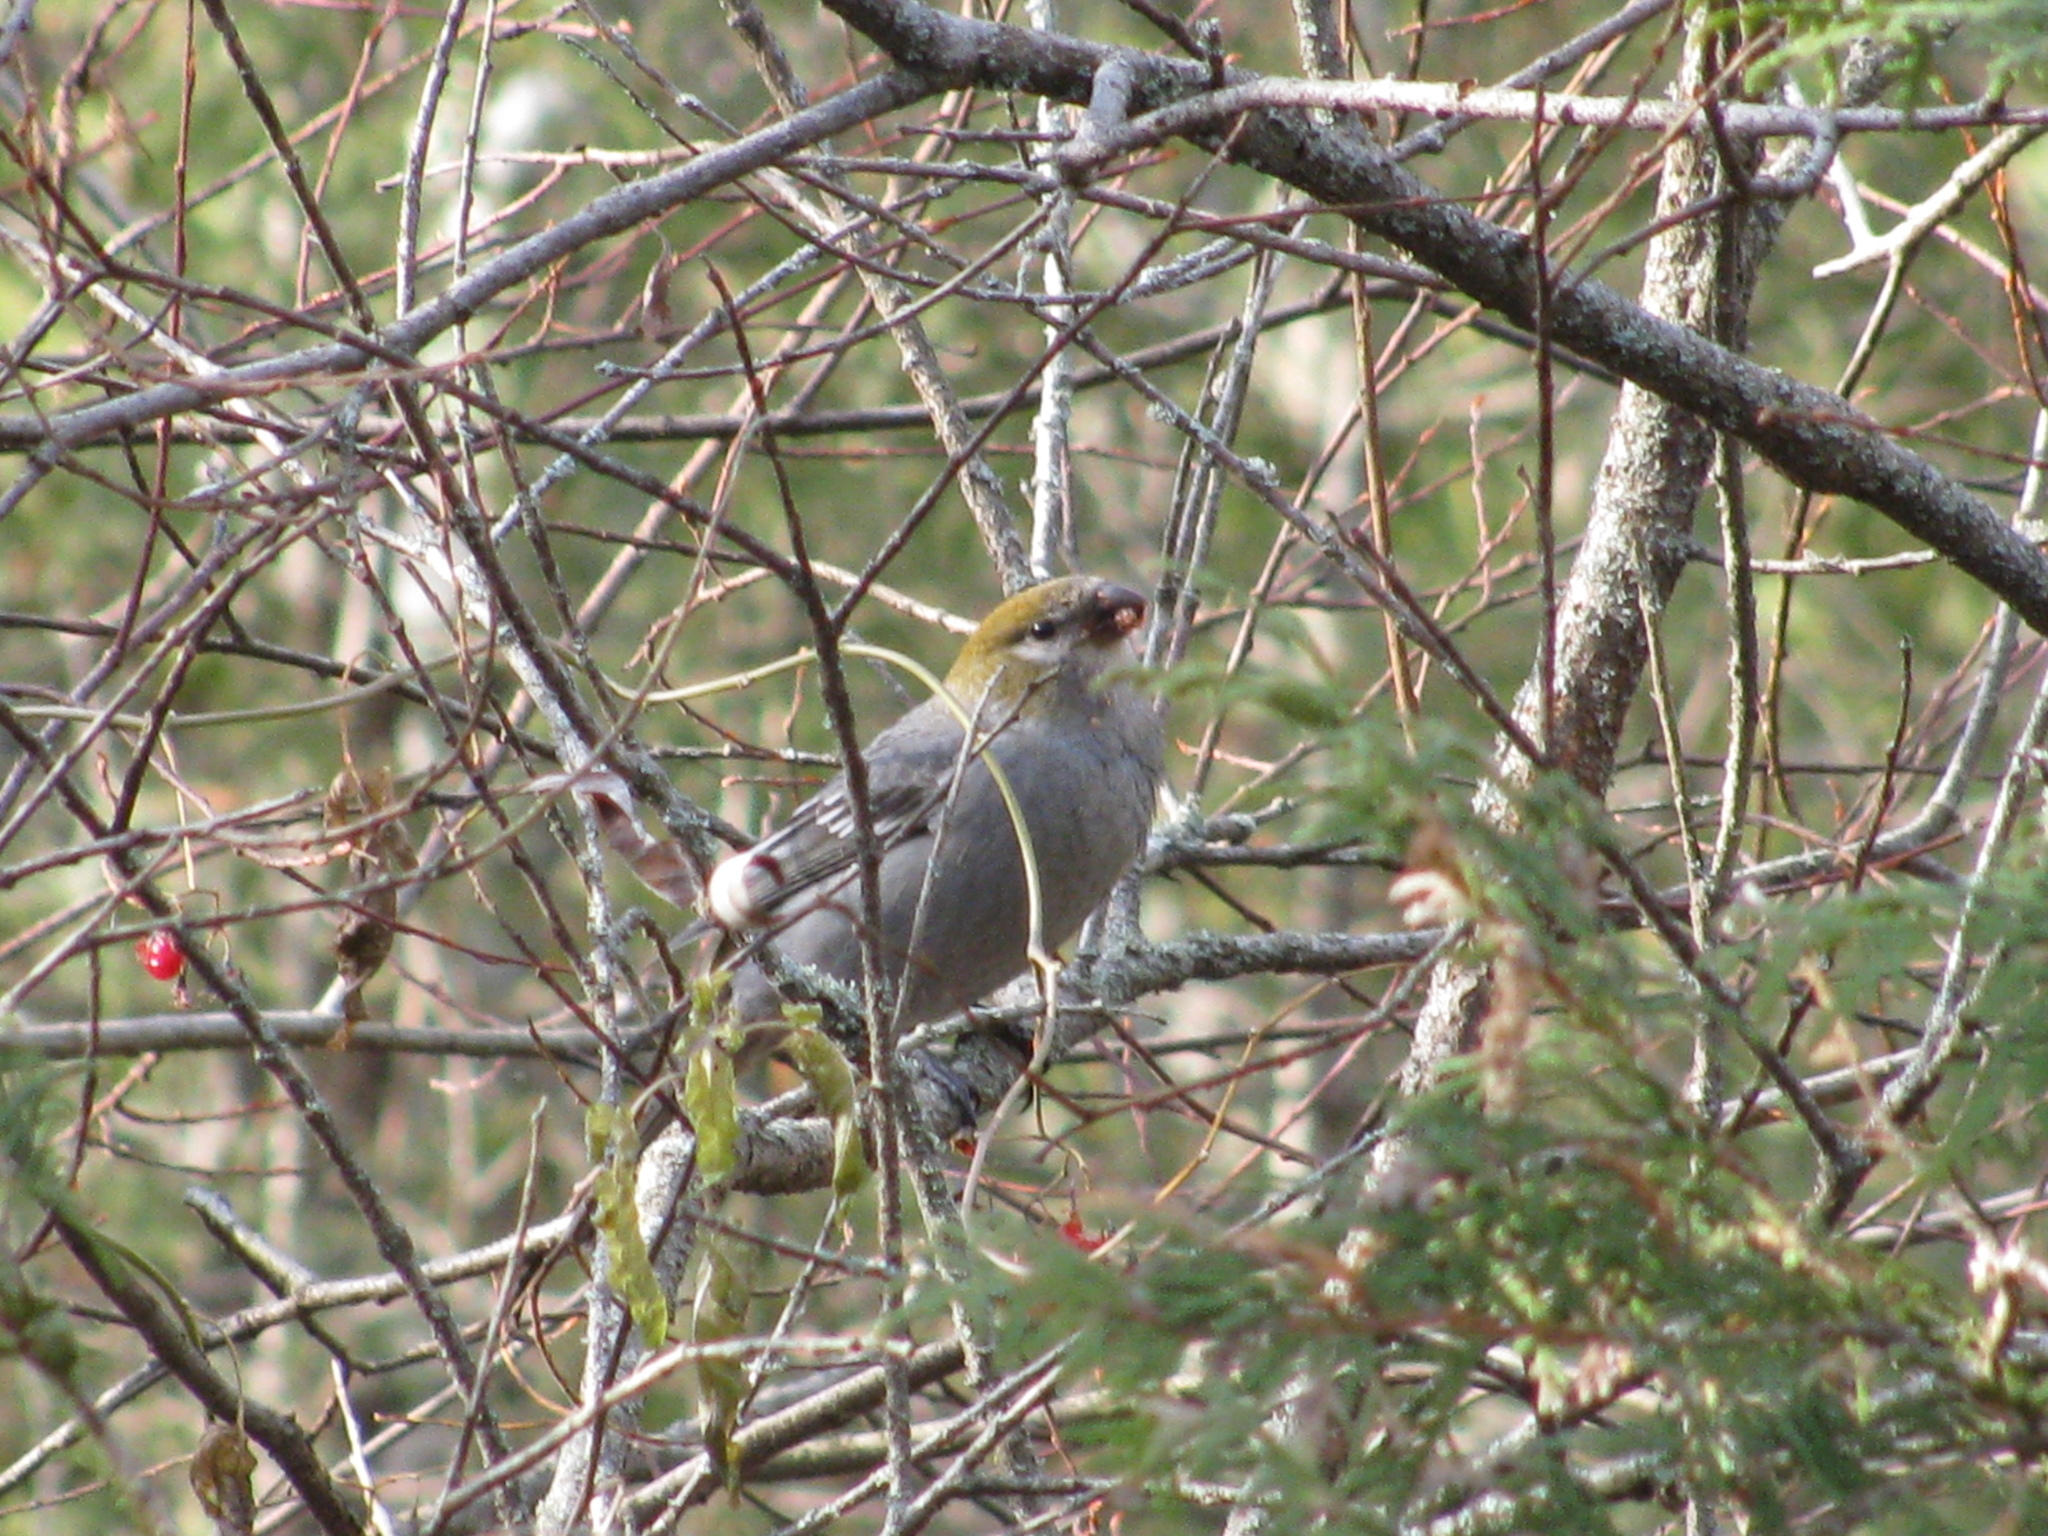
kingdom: Animalia
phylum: Chordata
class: Aves
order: Passeriformes
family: Fringillidae
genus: Pinicola
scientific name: Pinicola enucleator
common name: Pine grosbeak
